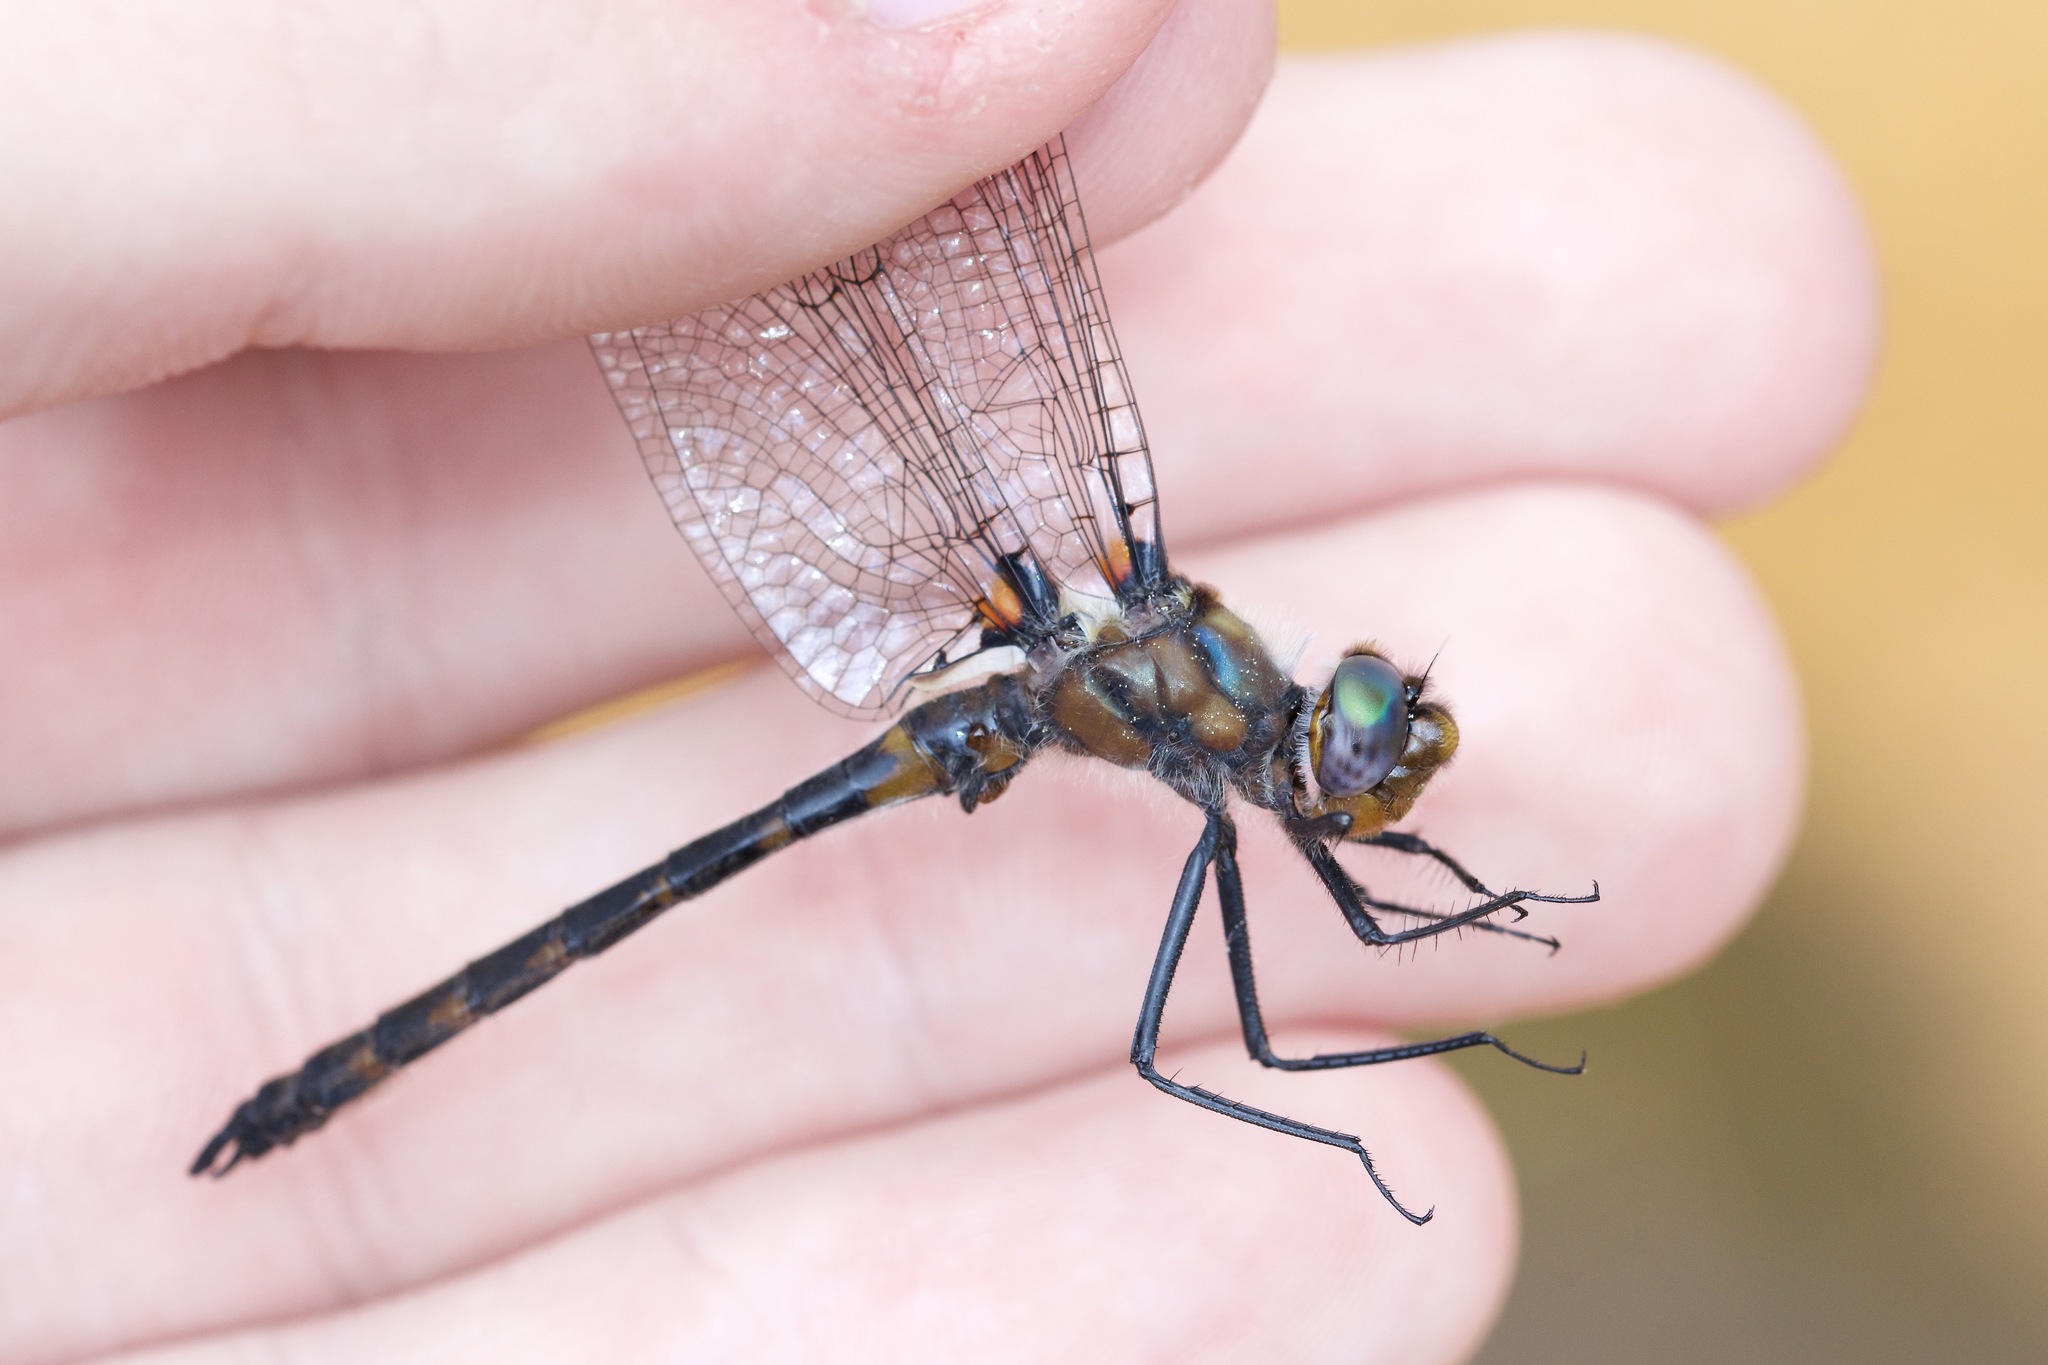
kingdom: Animalia
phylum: Arthropoda
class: Insecta
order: Odonata
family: Corduliidae
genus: Helocordulia
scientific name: Helocordulia uhleri
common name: Uhler's sundragon
